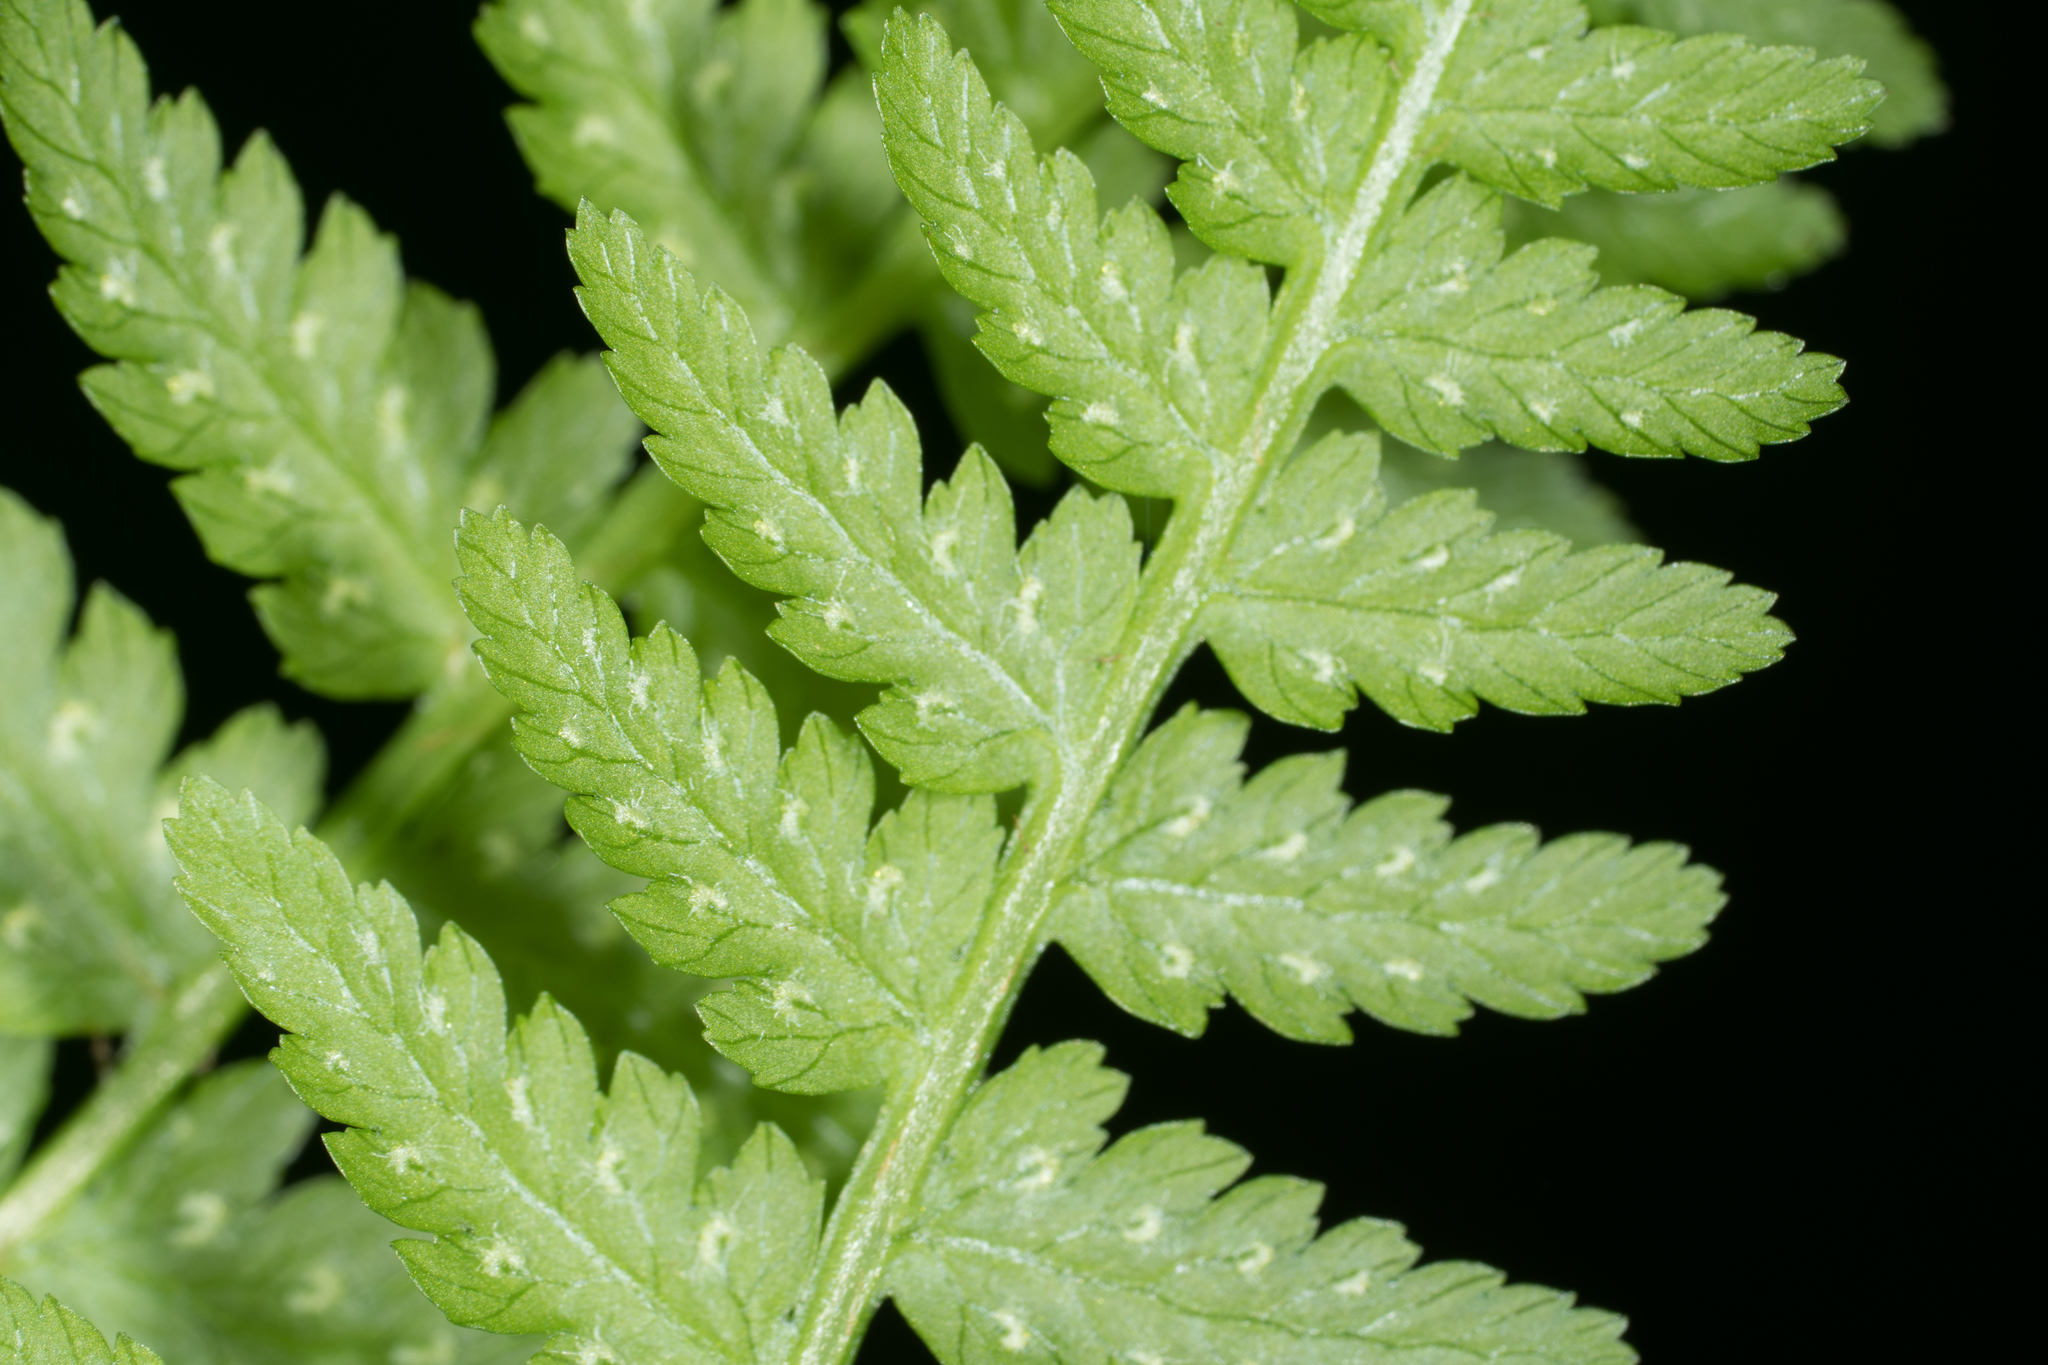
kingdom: Plantae
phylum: Tracheophyta
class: Polypodiopsida
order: Polypodiales
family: Athyriaceae
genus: Athyrium
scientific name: Athyrium cyclosorum
